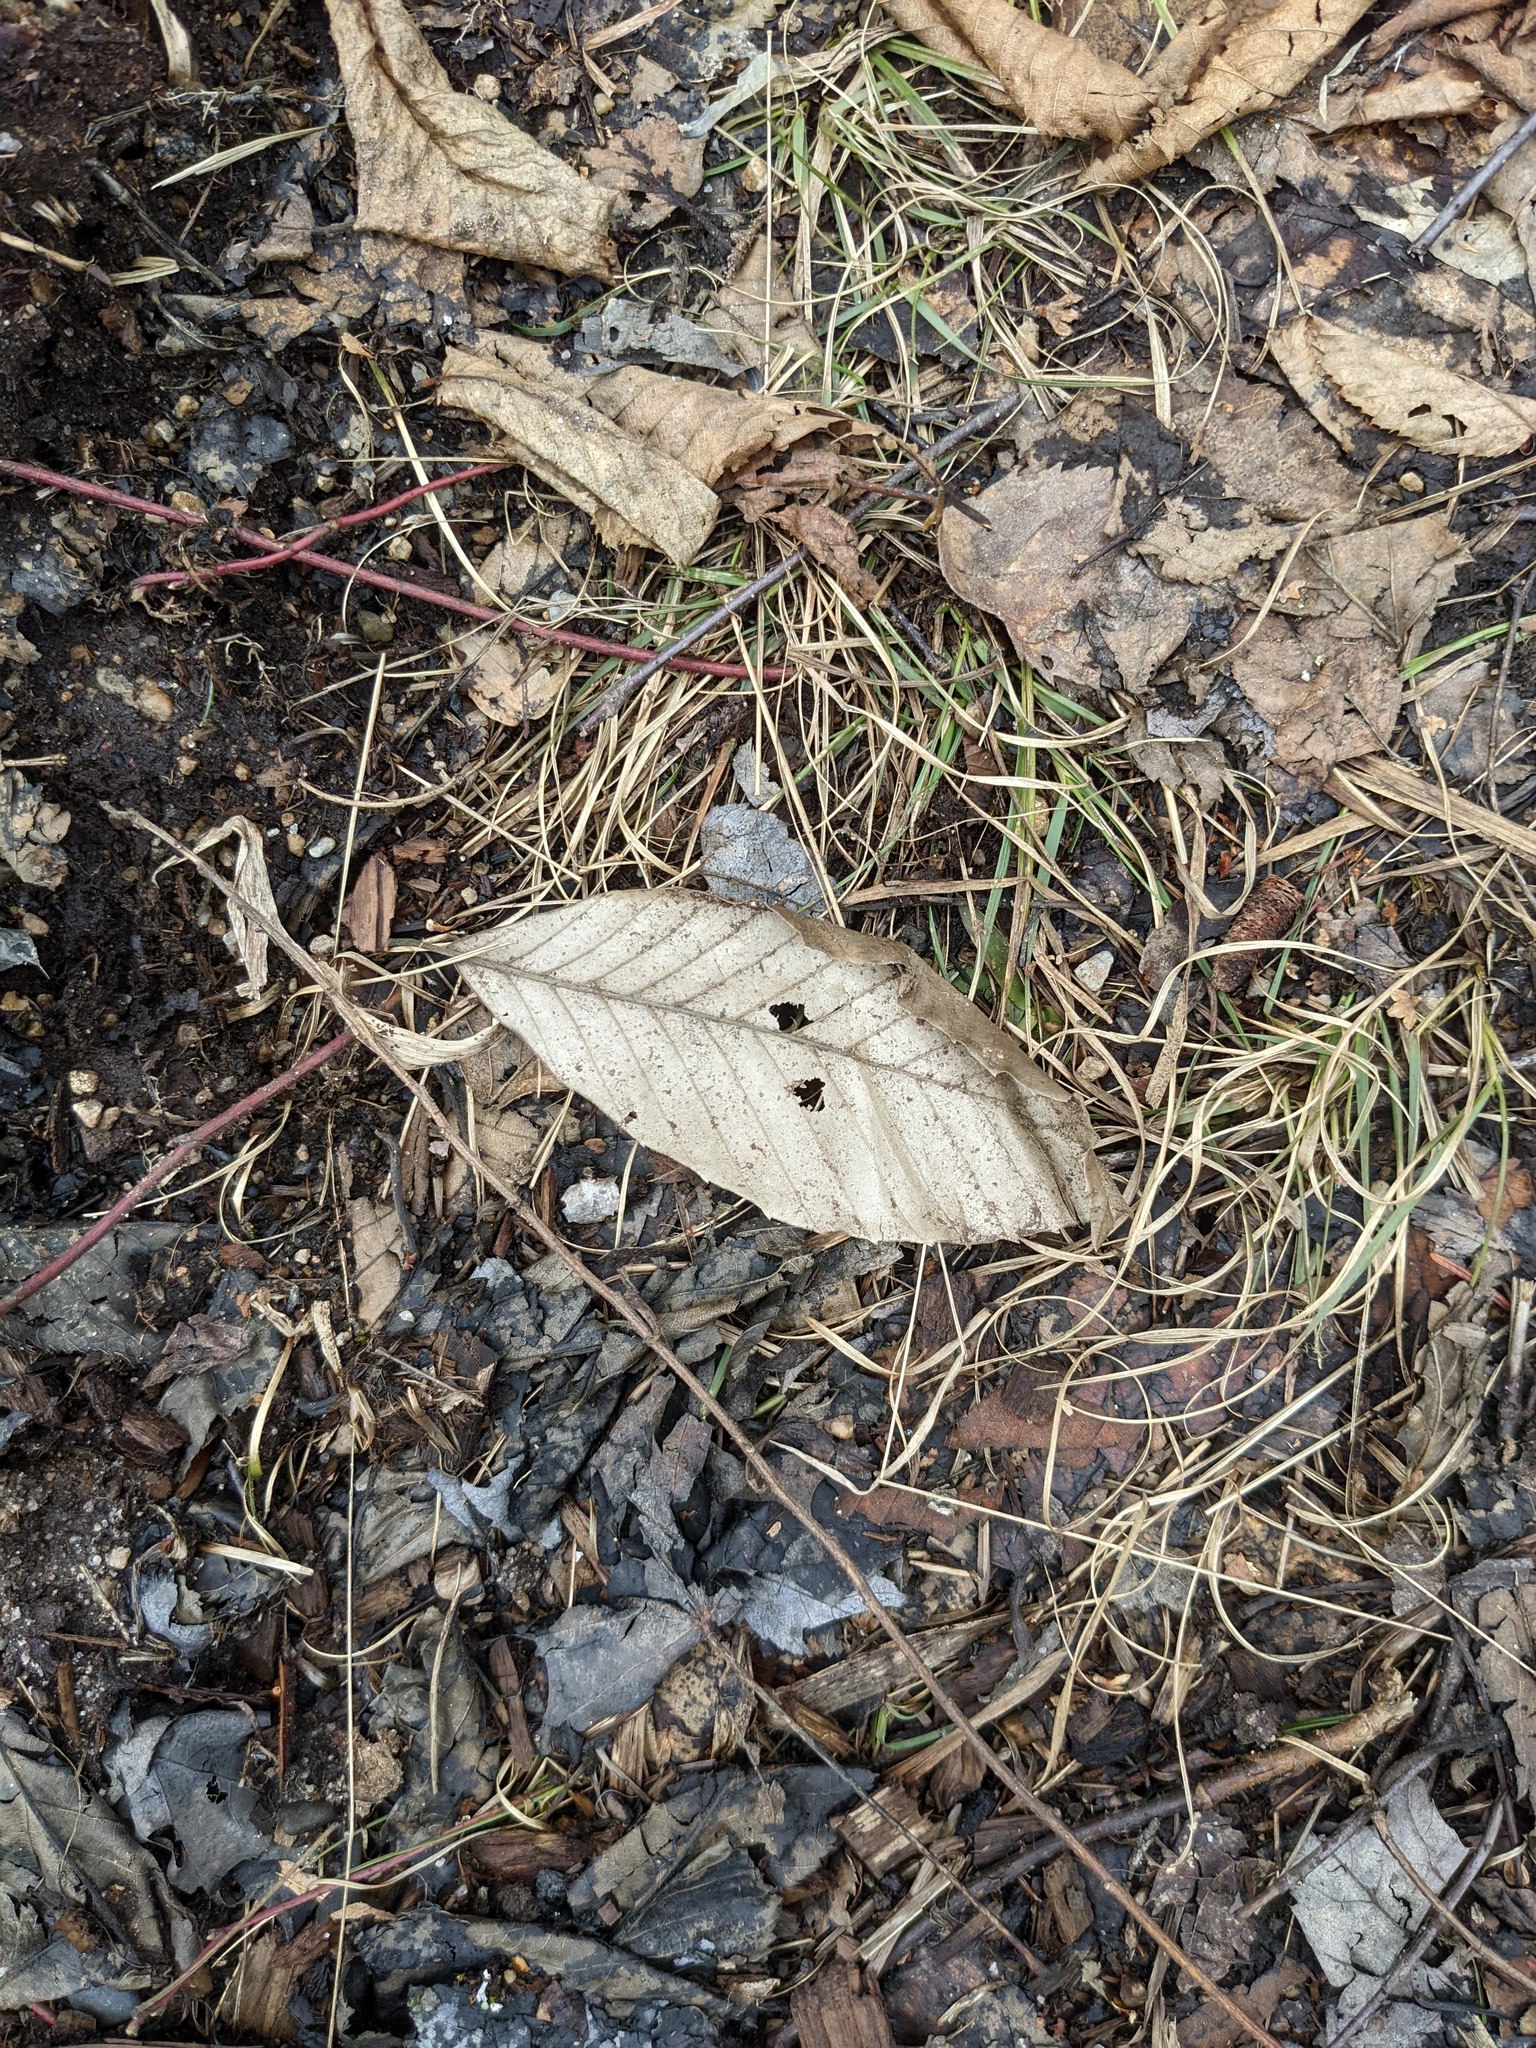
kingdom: Plantae
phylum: Tracheophyta
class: Magnoliopsida
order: Fagales
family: Fagaceae
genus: Fagus
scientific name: Fagus grandifolia
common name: American beech
